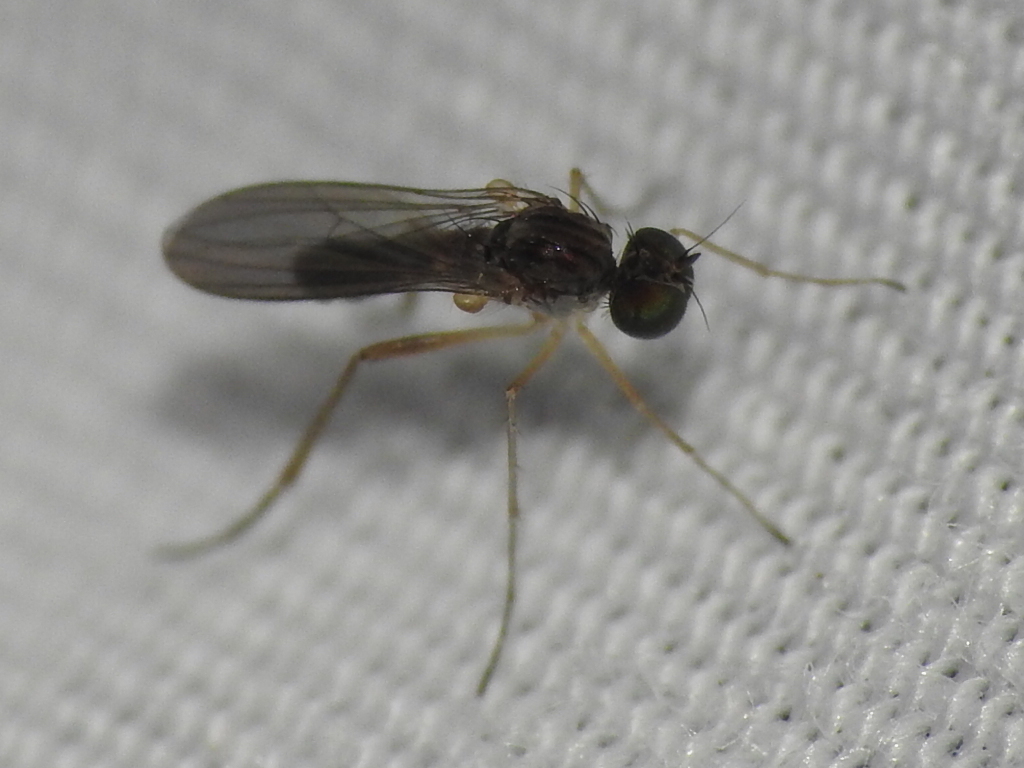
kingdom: Animalia
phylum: Arthropoda
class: Insecta
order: Diptera
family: Dolichopodidae
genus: Sympycnus
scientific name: Sympycnus lineatus
